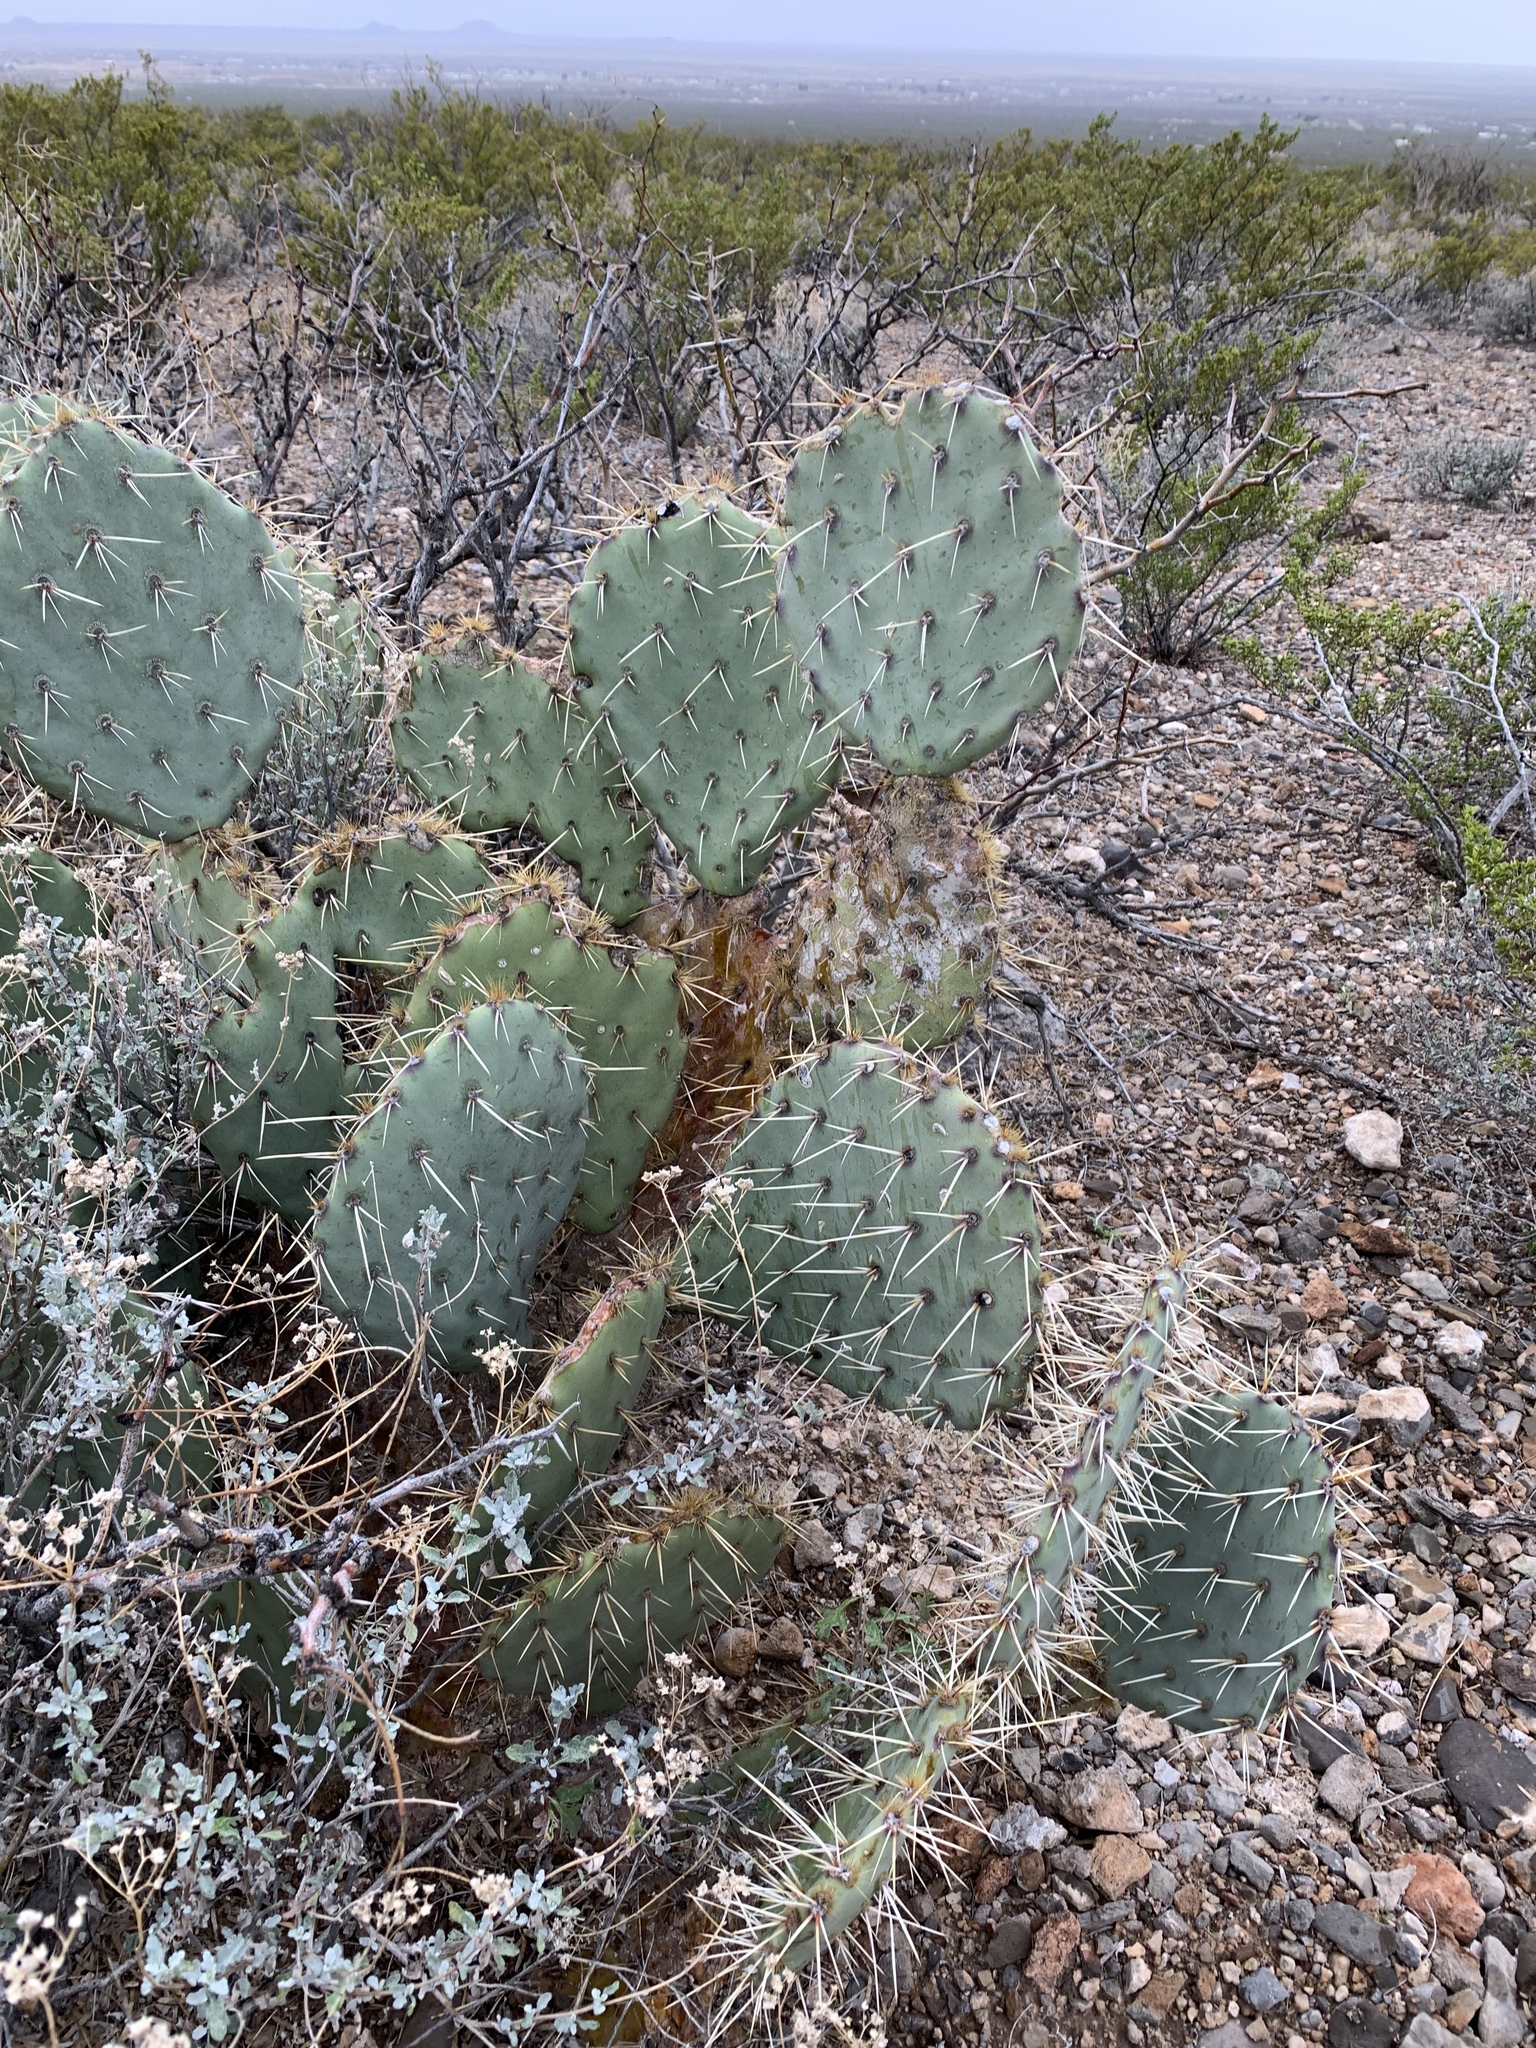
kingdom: Plantae
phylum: Tracheophyta
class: Magnoliopsida
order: Caryophyllales
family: Cactaceae
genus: Opuntia
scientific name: Opuntia engelmannii
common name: Cactus-apple
